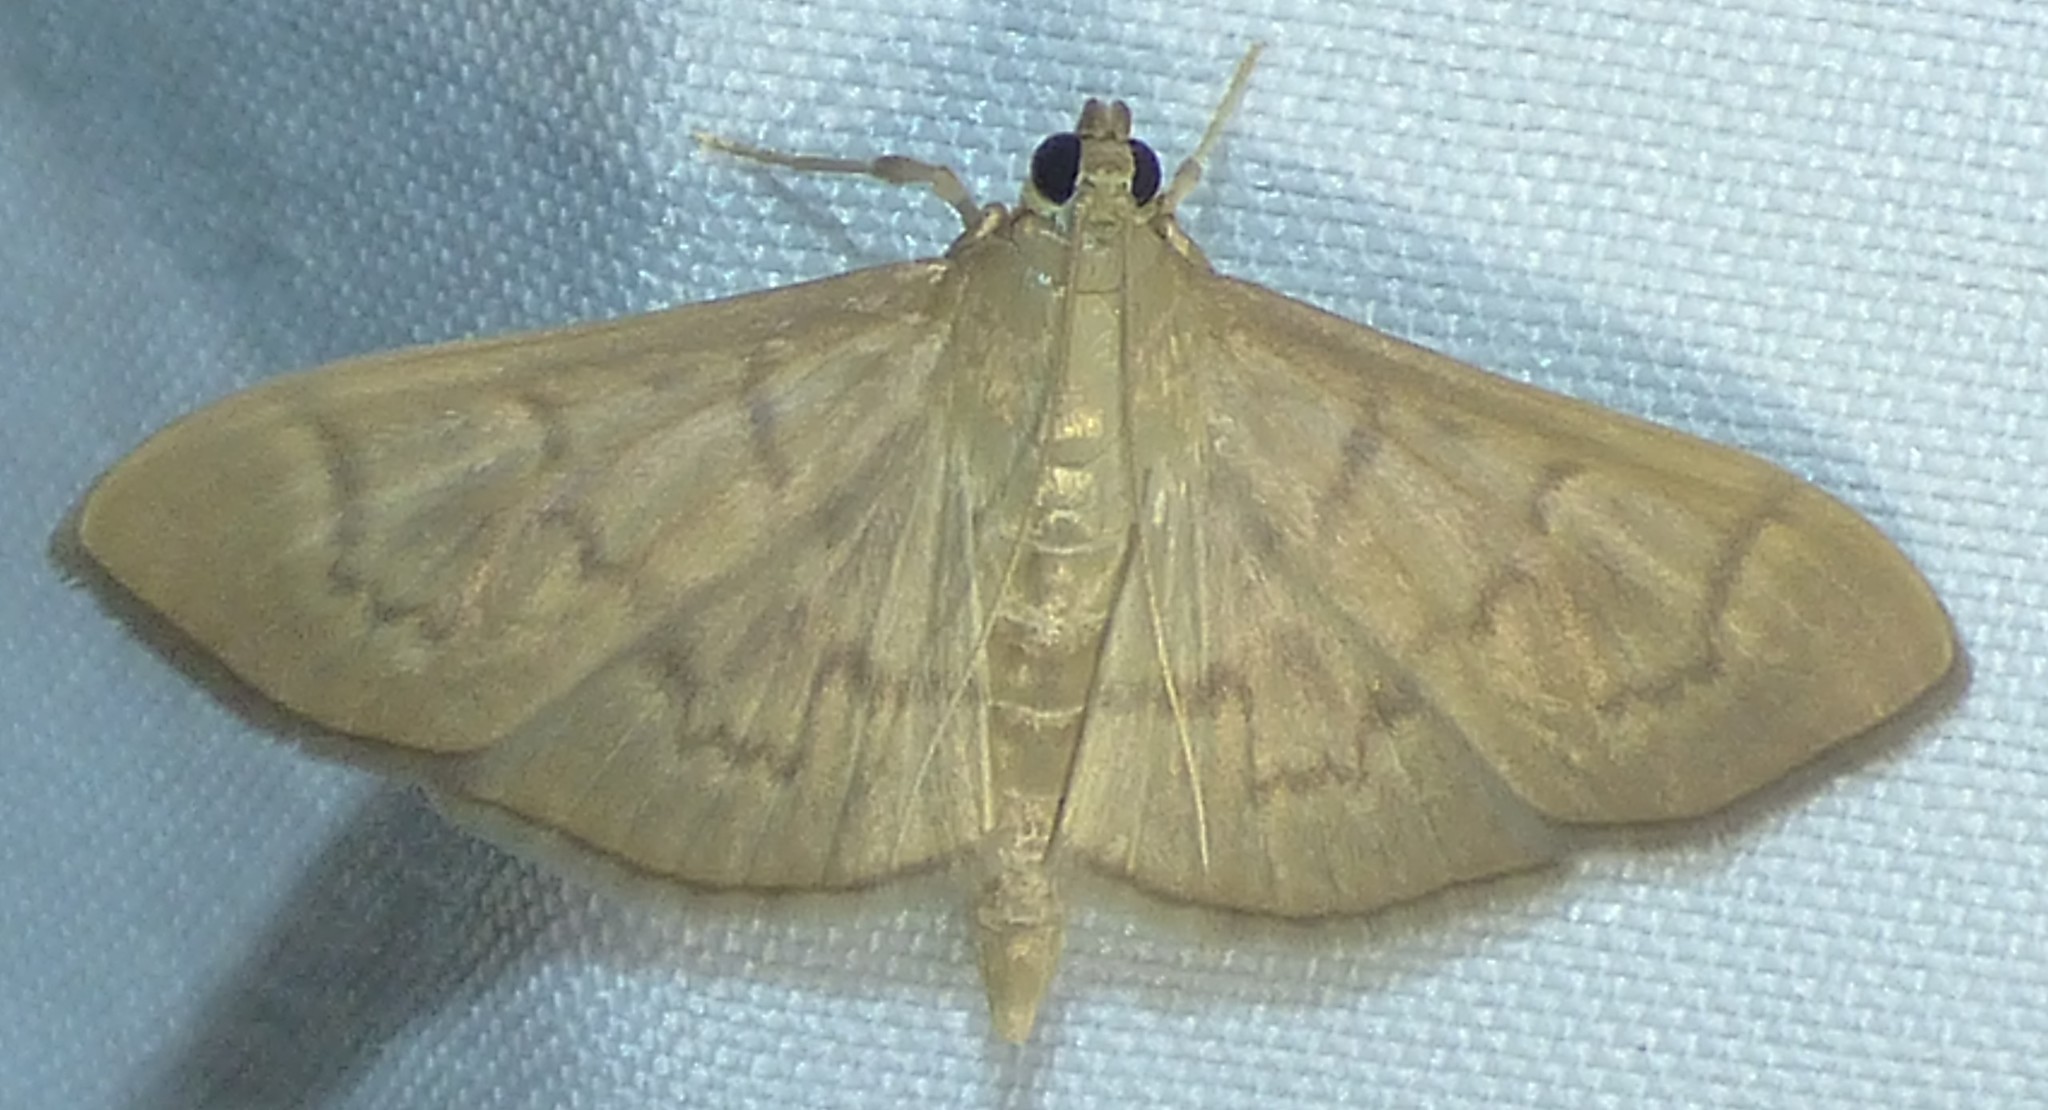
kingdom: Animalia
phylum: Arthropoda
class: Insecta
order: Lepidoptera
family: Crambidae
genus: Condylorrhiza
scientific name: Condylorrhiza vestigialis
